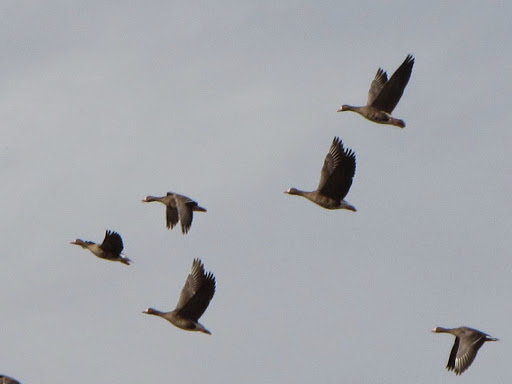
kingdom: Animalia
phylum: Chordata
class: Aves
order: Anseriformes
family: Anatidae
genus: Anser
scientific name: Anser albifrons
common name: Greater white-fronted goose
